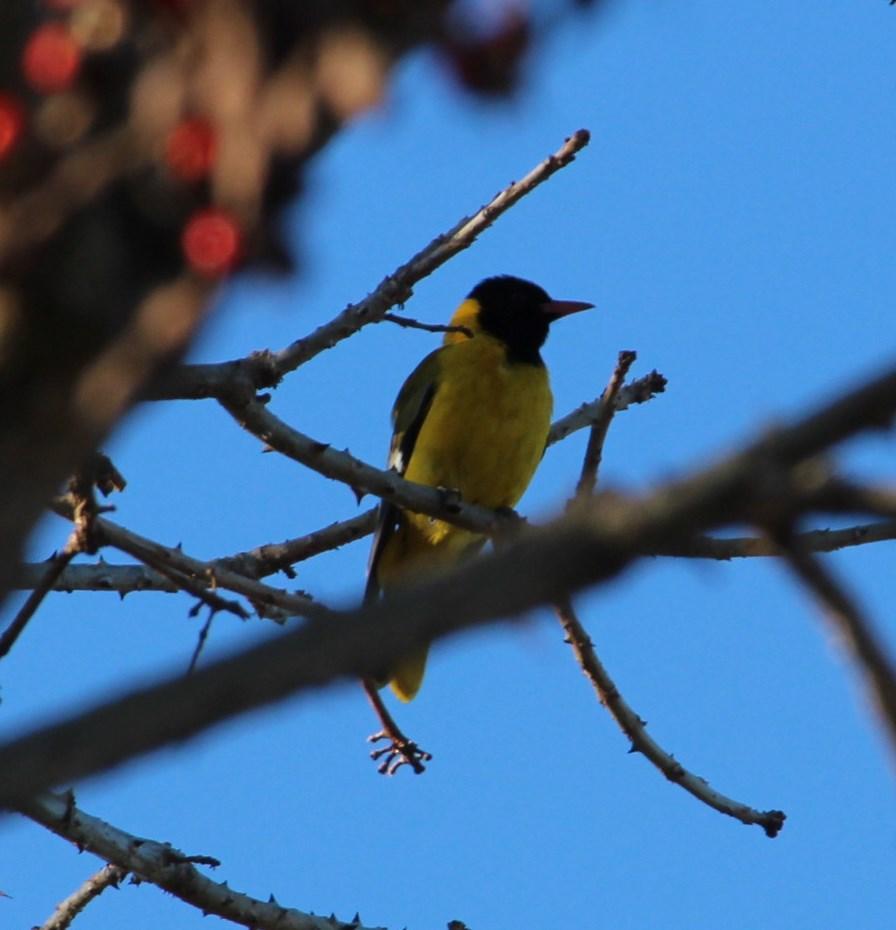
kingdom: Animalia
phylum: Chordata
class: Aves
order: Passeriformes
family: Oriolidae
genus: Oriolus
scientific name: Oriolus larvatus
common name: Black-headed oriole
